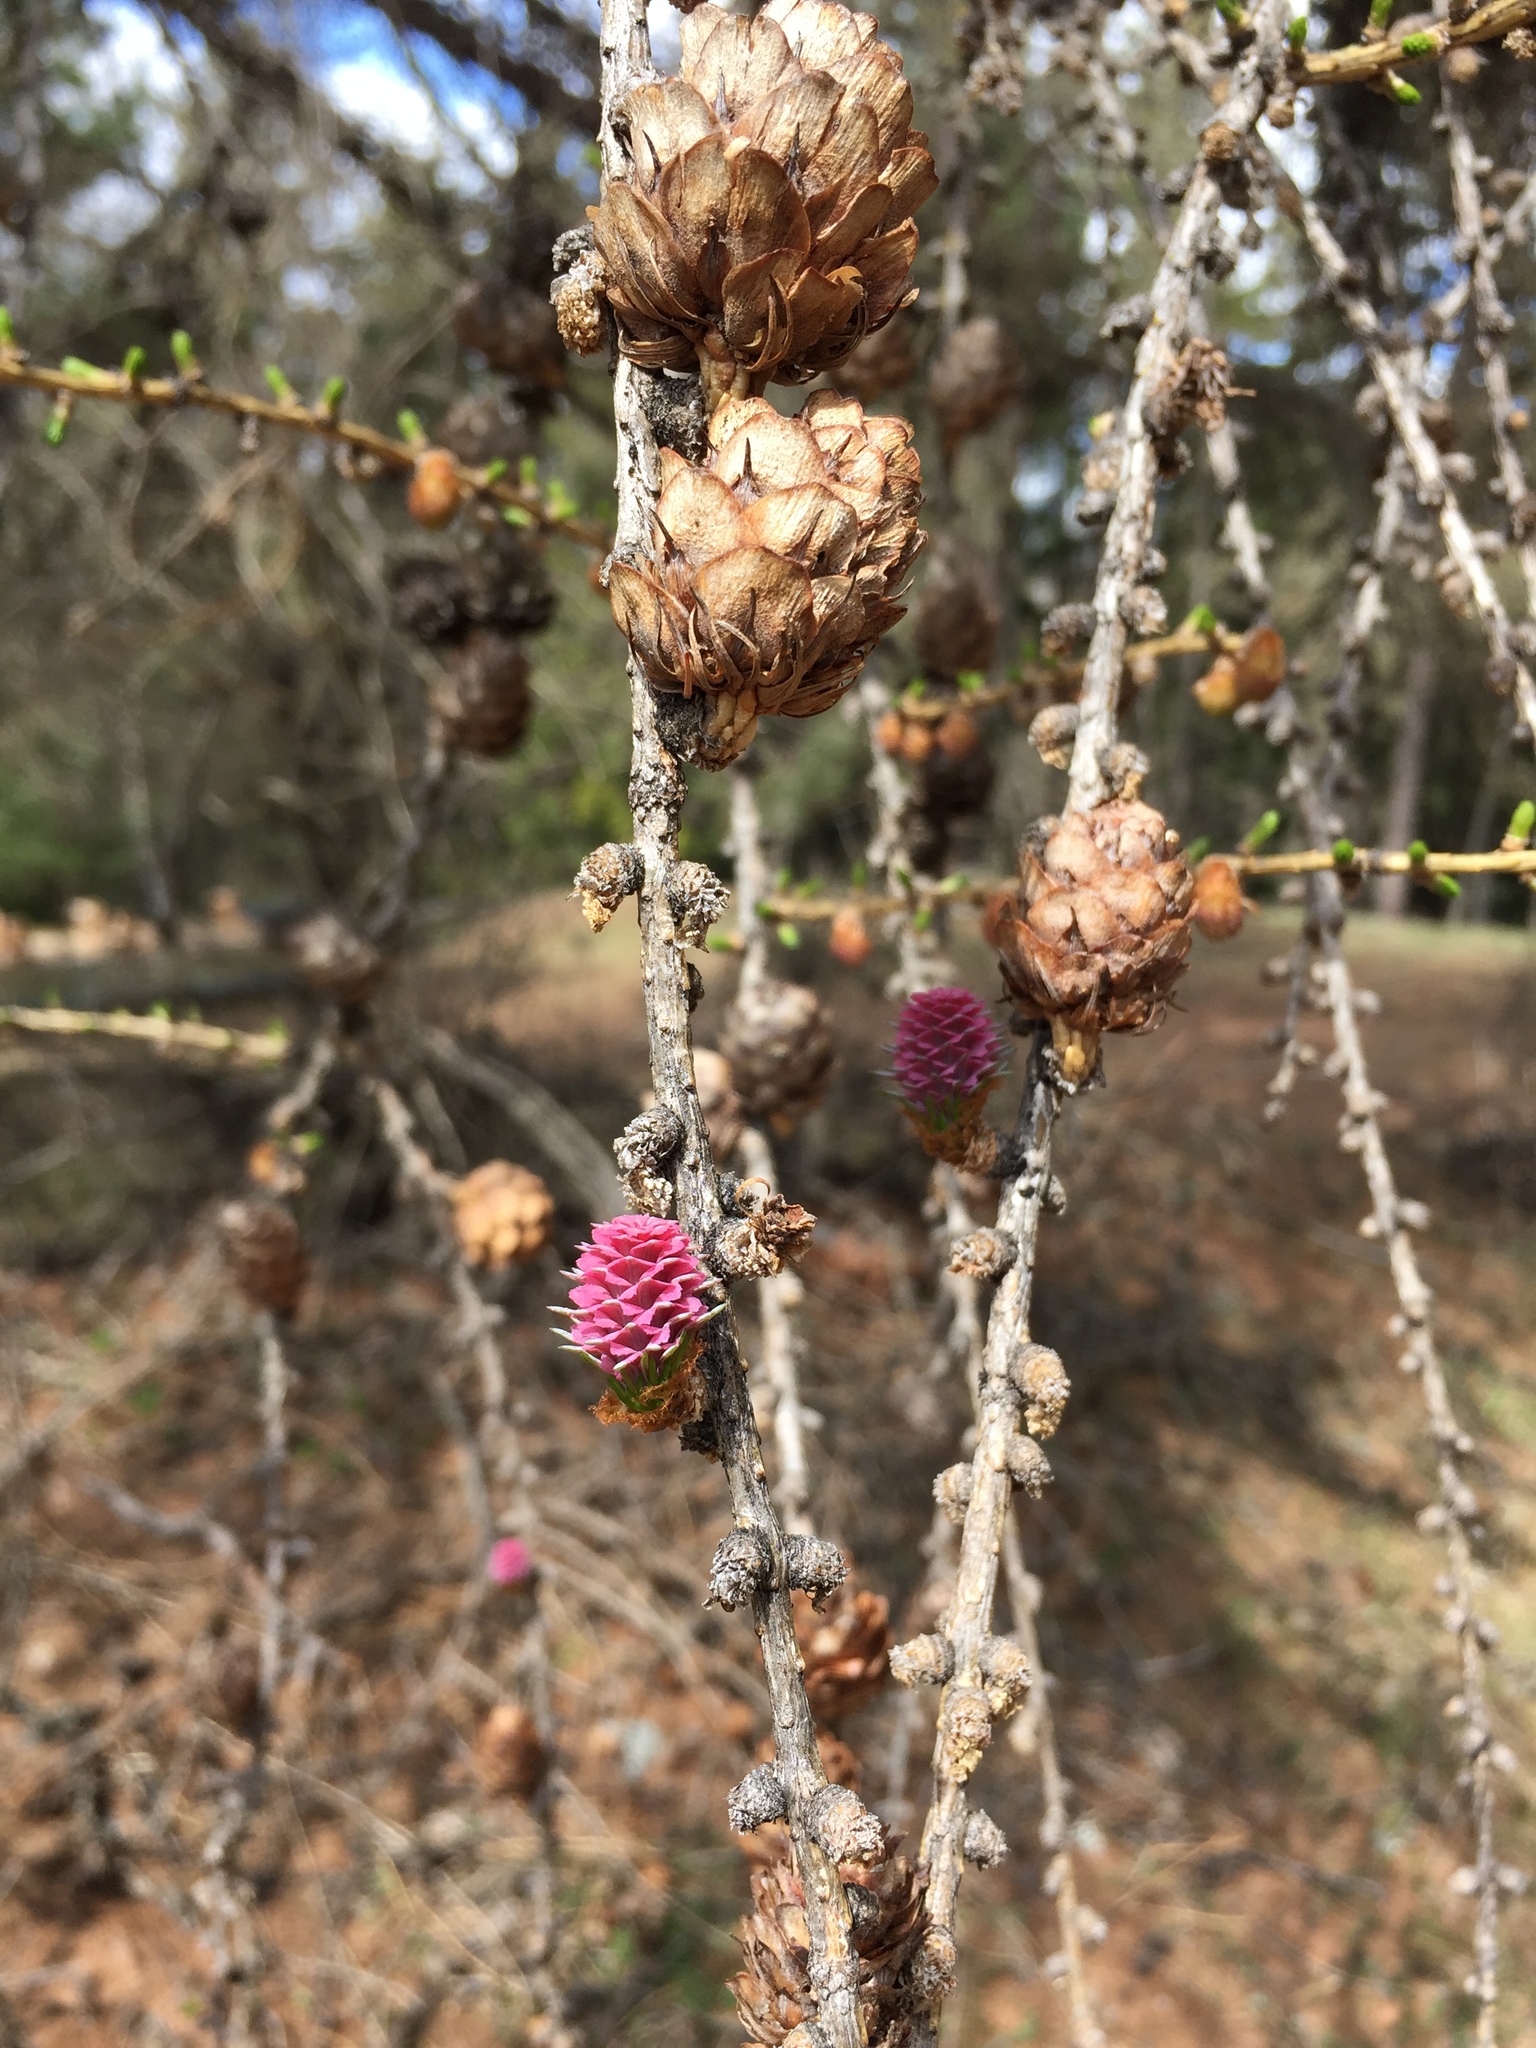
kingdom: Plantae
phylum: Tracheophyta
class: Pinopsida
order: Pinales
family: Pinaceae
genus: Larix
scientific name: Larix decidua
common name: European larch
